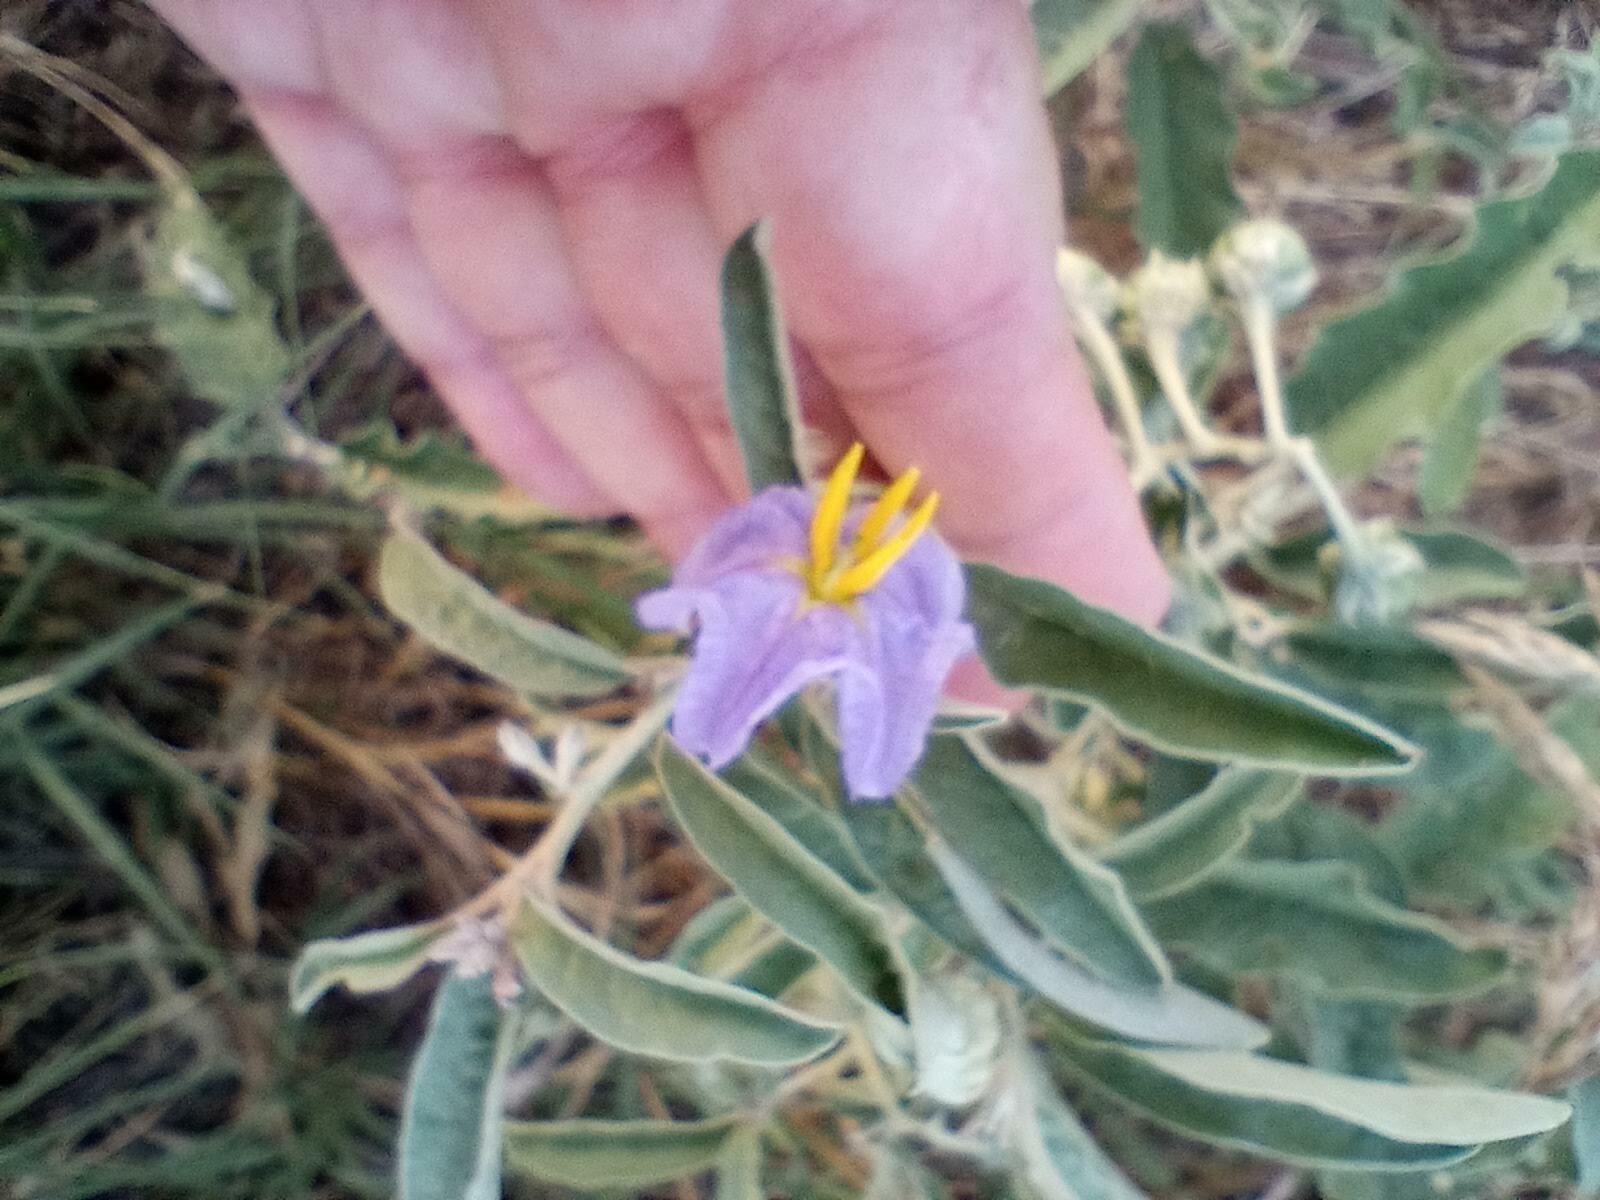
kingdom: Plantae
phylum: Tracheophyta
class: Magnoliopsida
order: Solanales
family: Solanaceae
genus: Solanum
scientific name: Solanum elaeagnifolium
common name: Silverleaf nightshade
